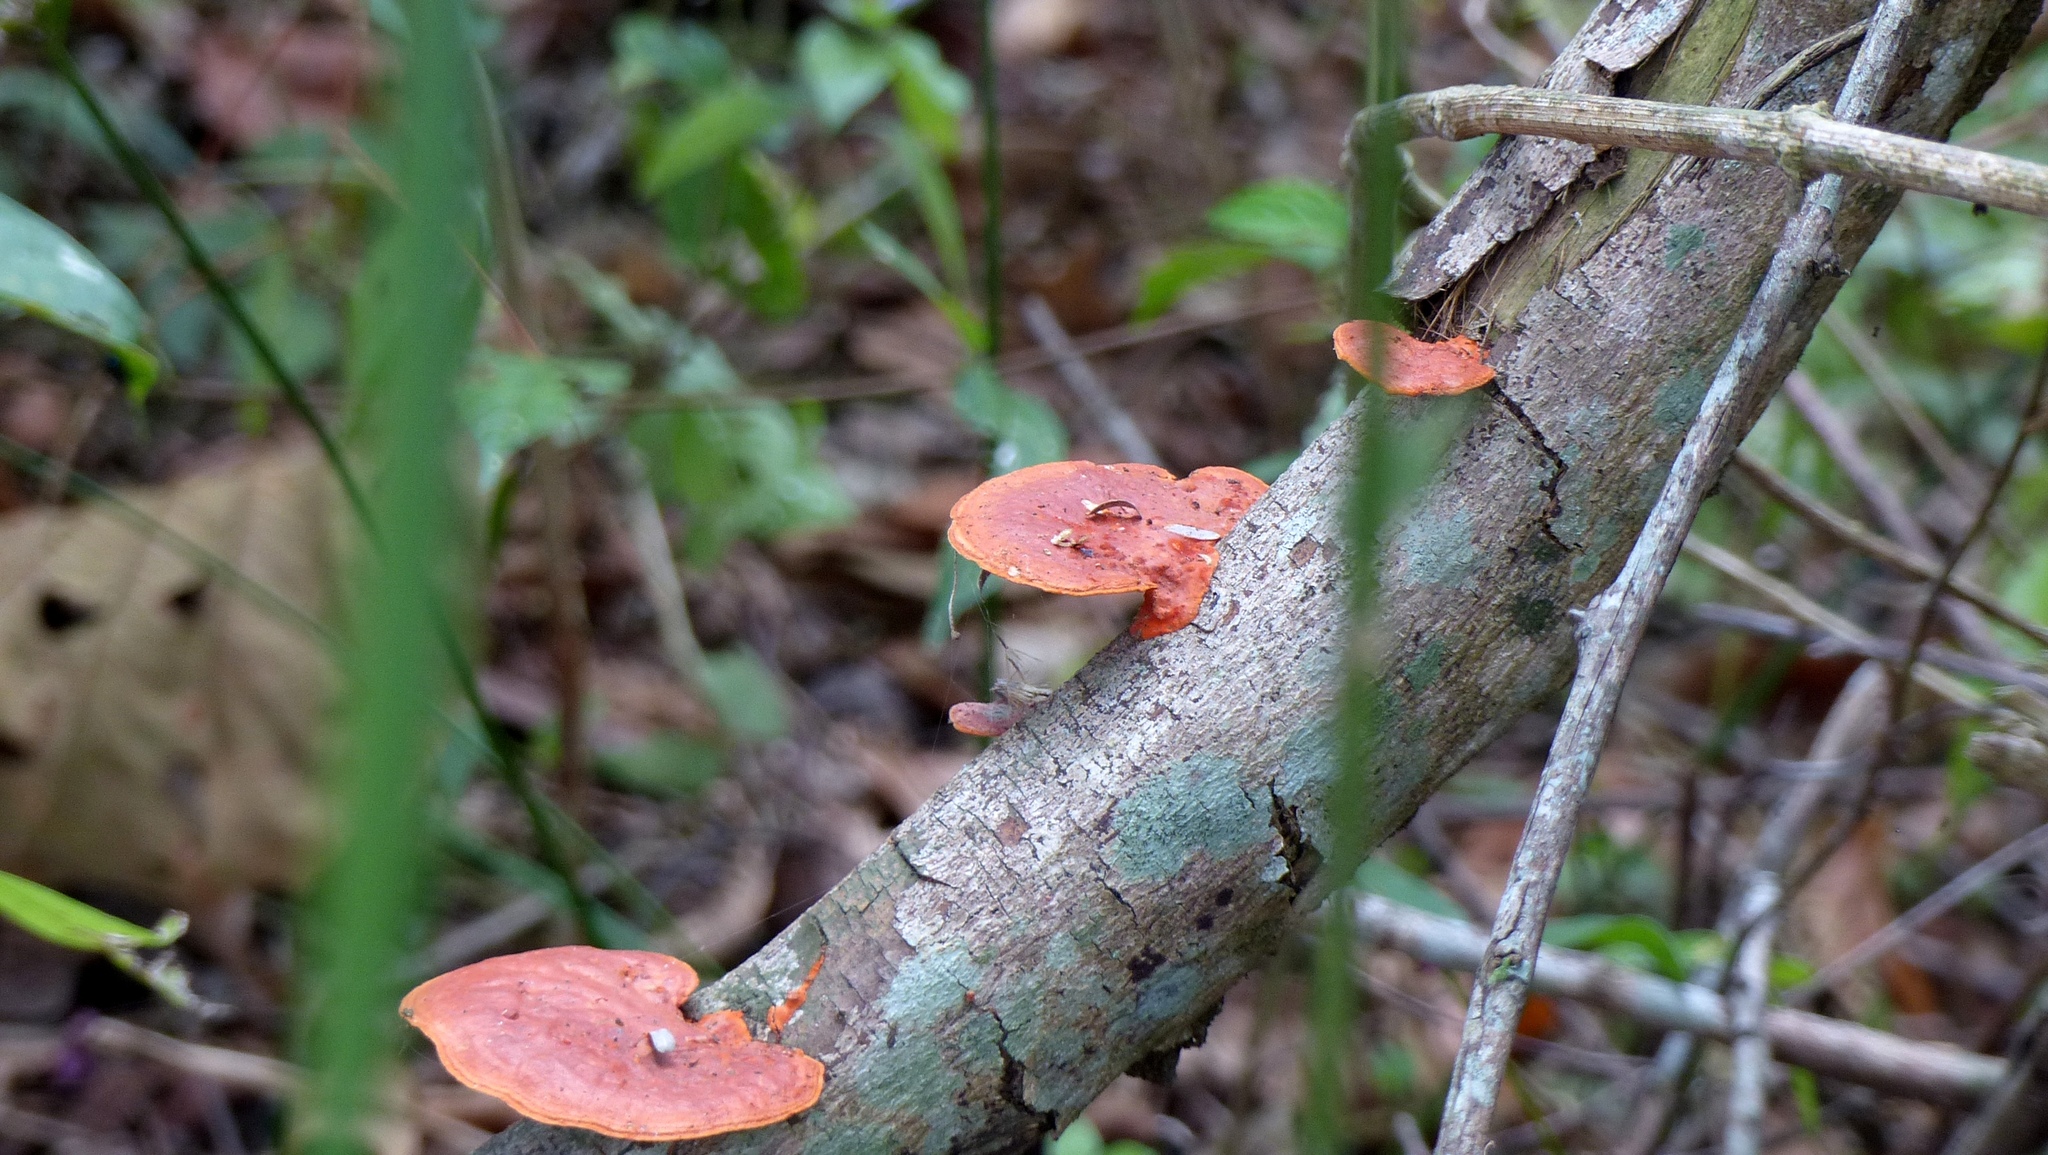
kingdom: Fungi
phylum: Basidiomycota
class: Agaricomycetes
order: Polyporales
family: Polyporaceae
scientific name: Polyporaceae
